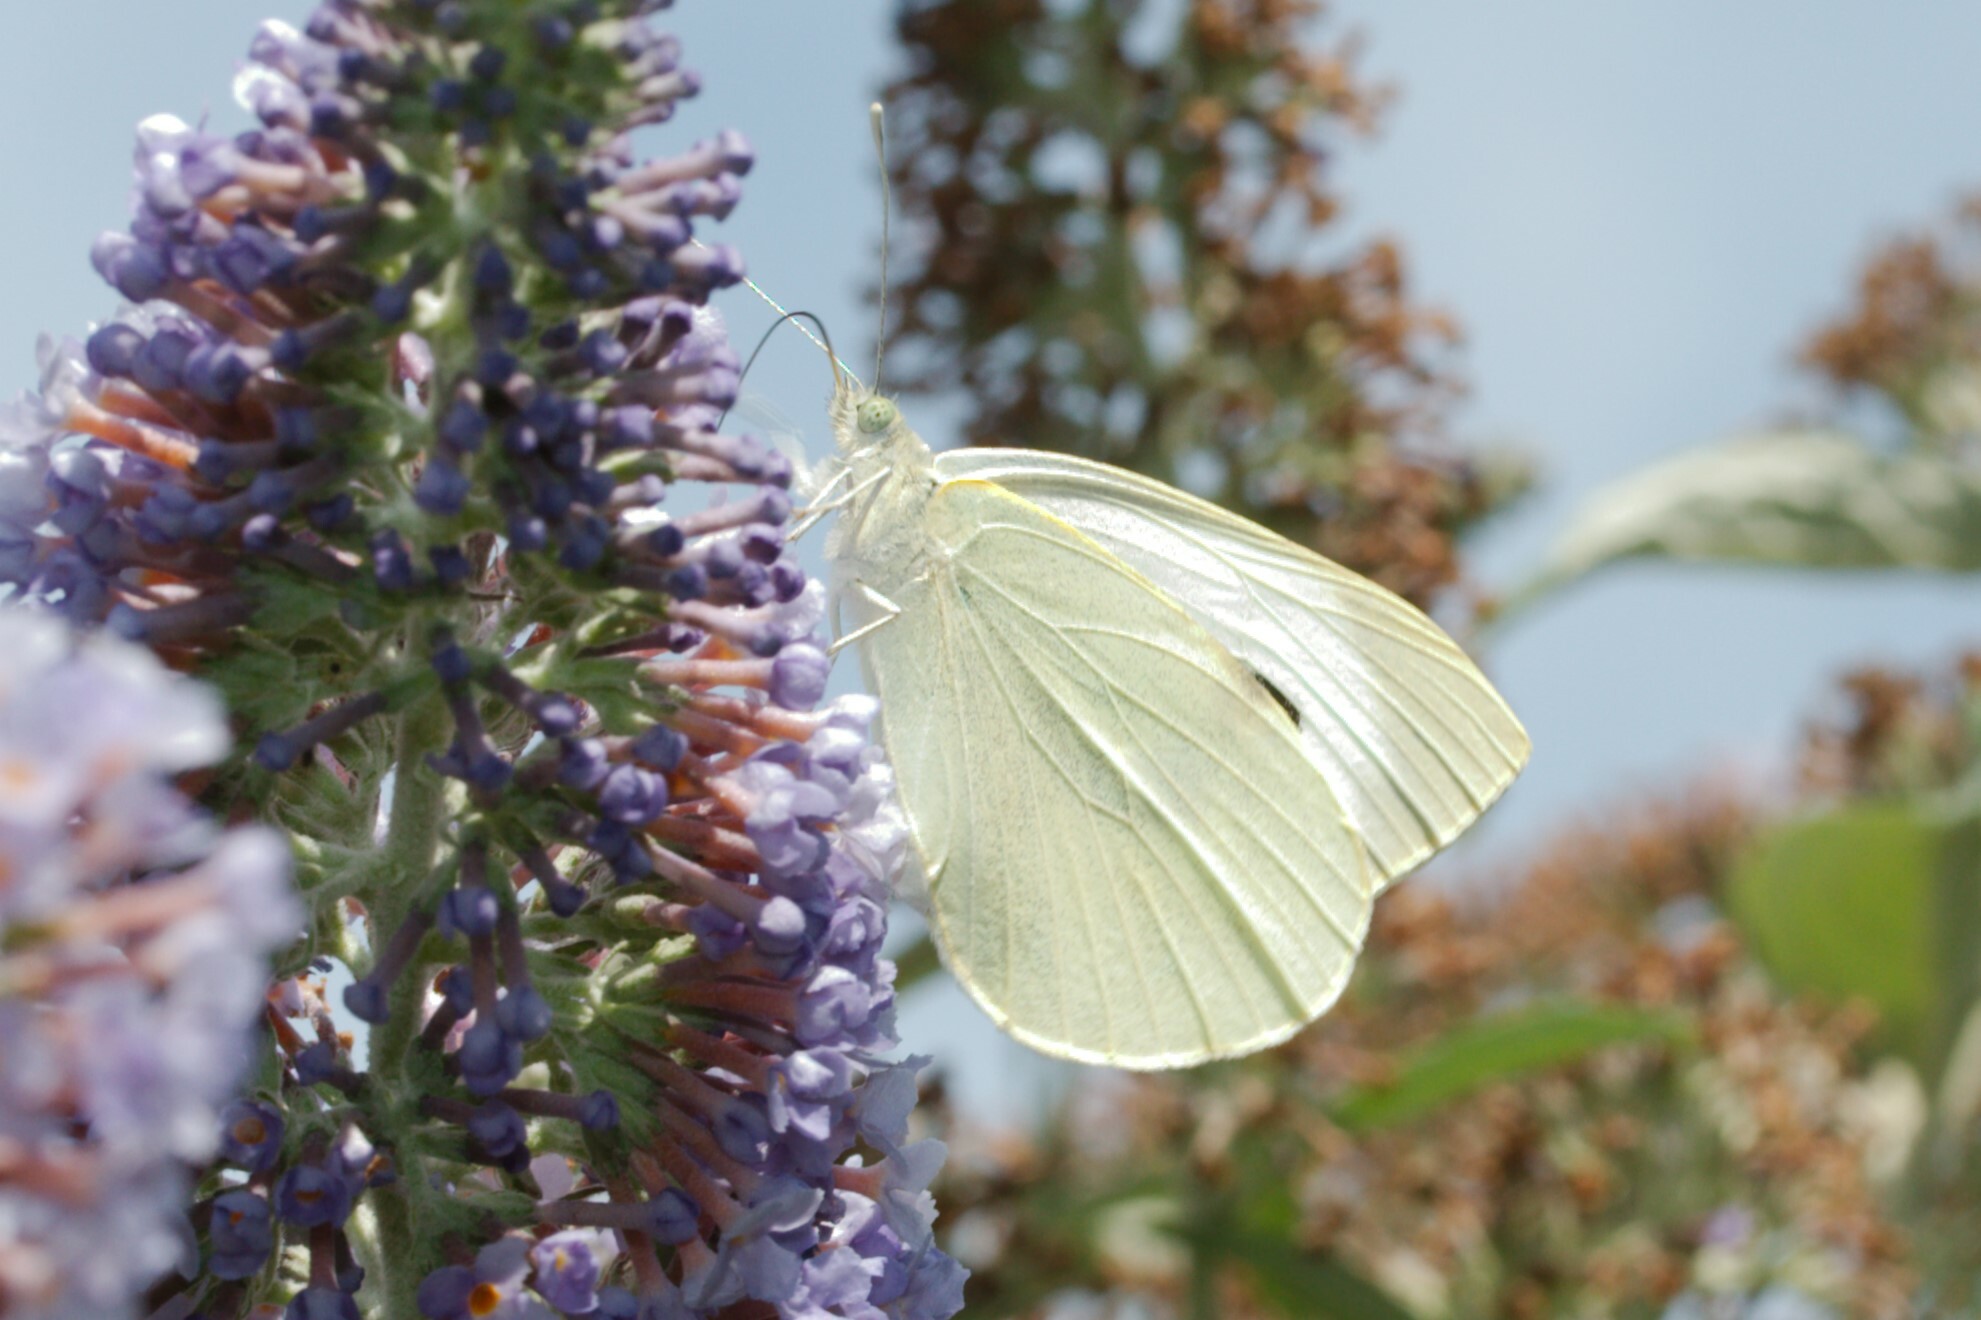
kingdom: Animalia
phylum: Arthropoda
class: Insecta
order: Lepidoptera
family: Pieridae
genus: Pieris
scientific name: Pieris brassicae
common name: Large white
